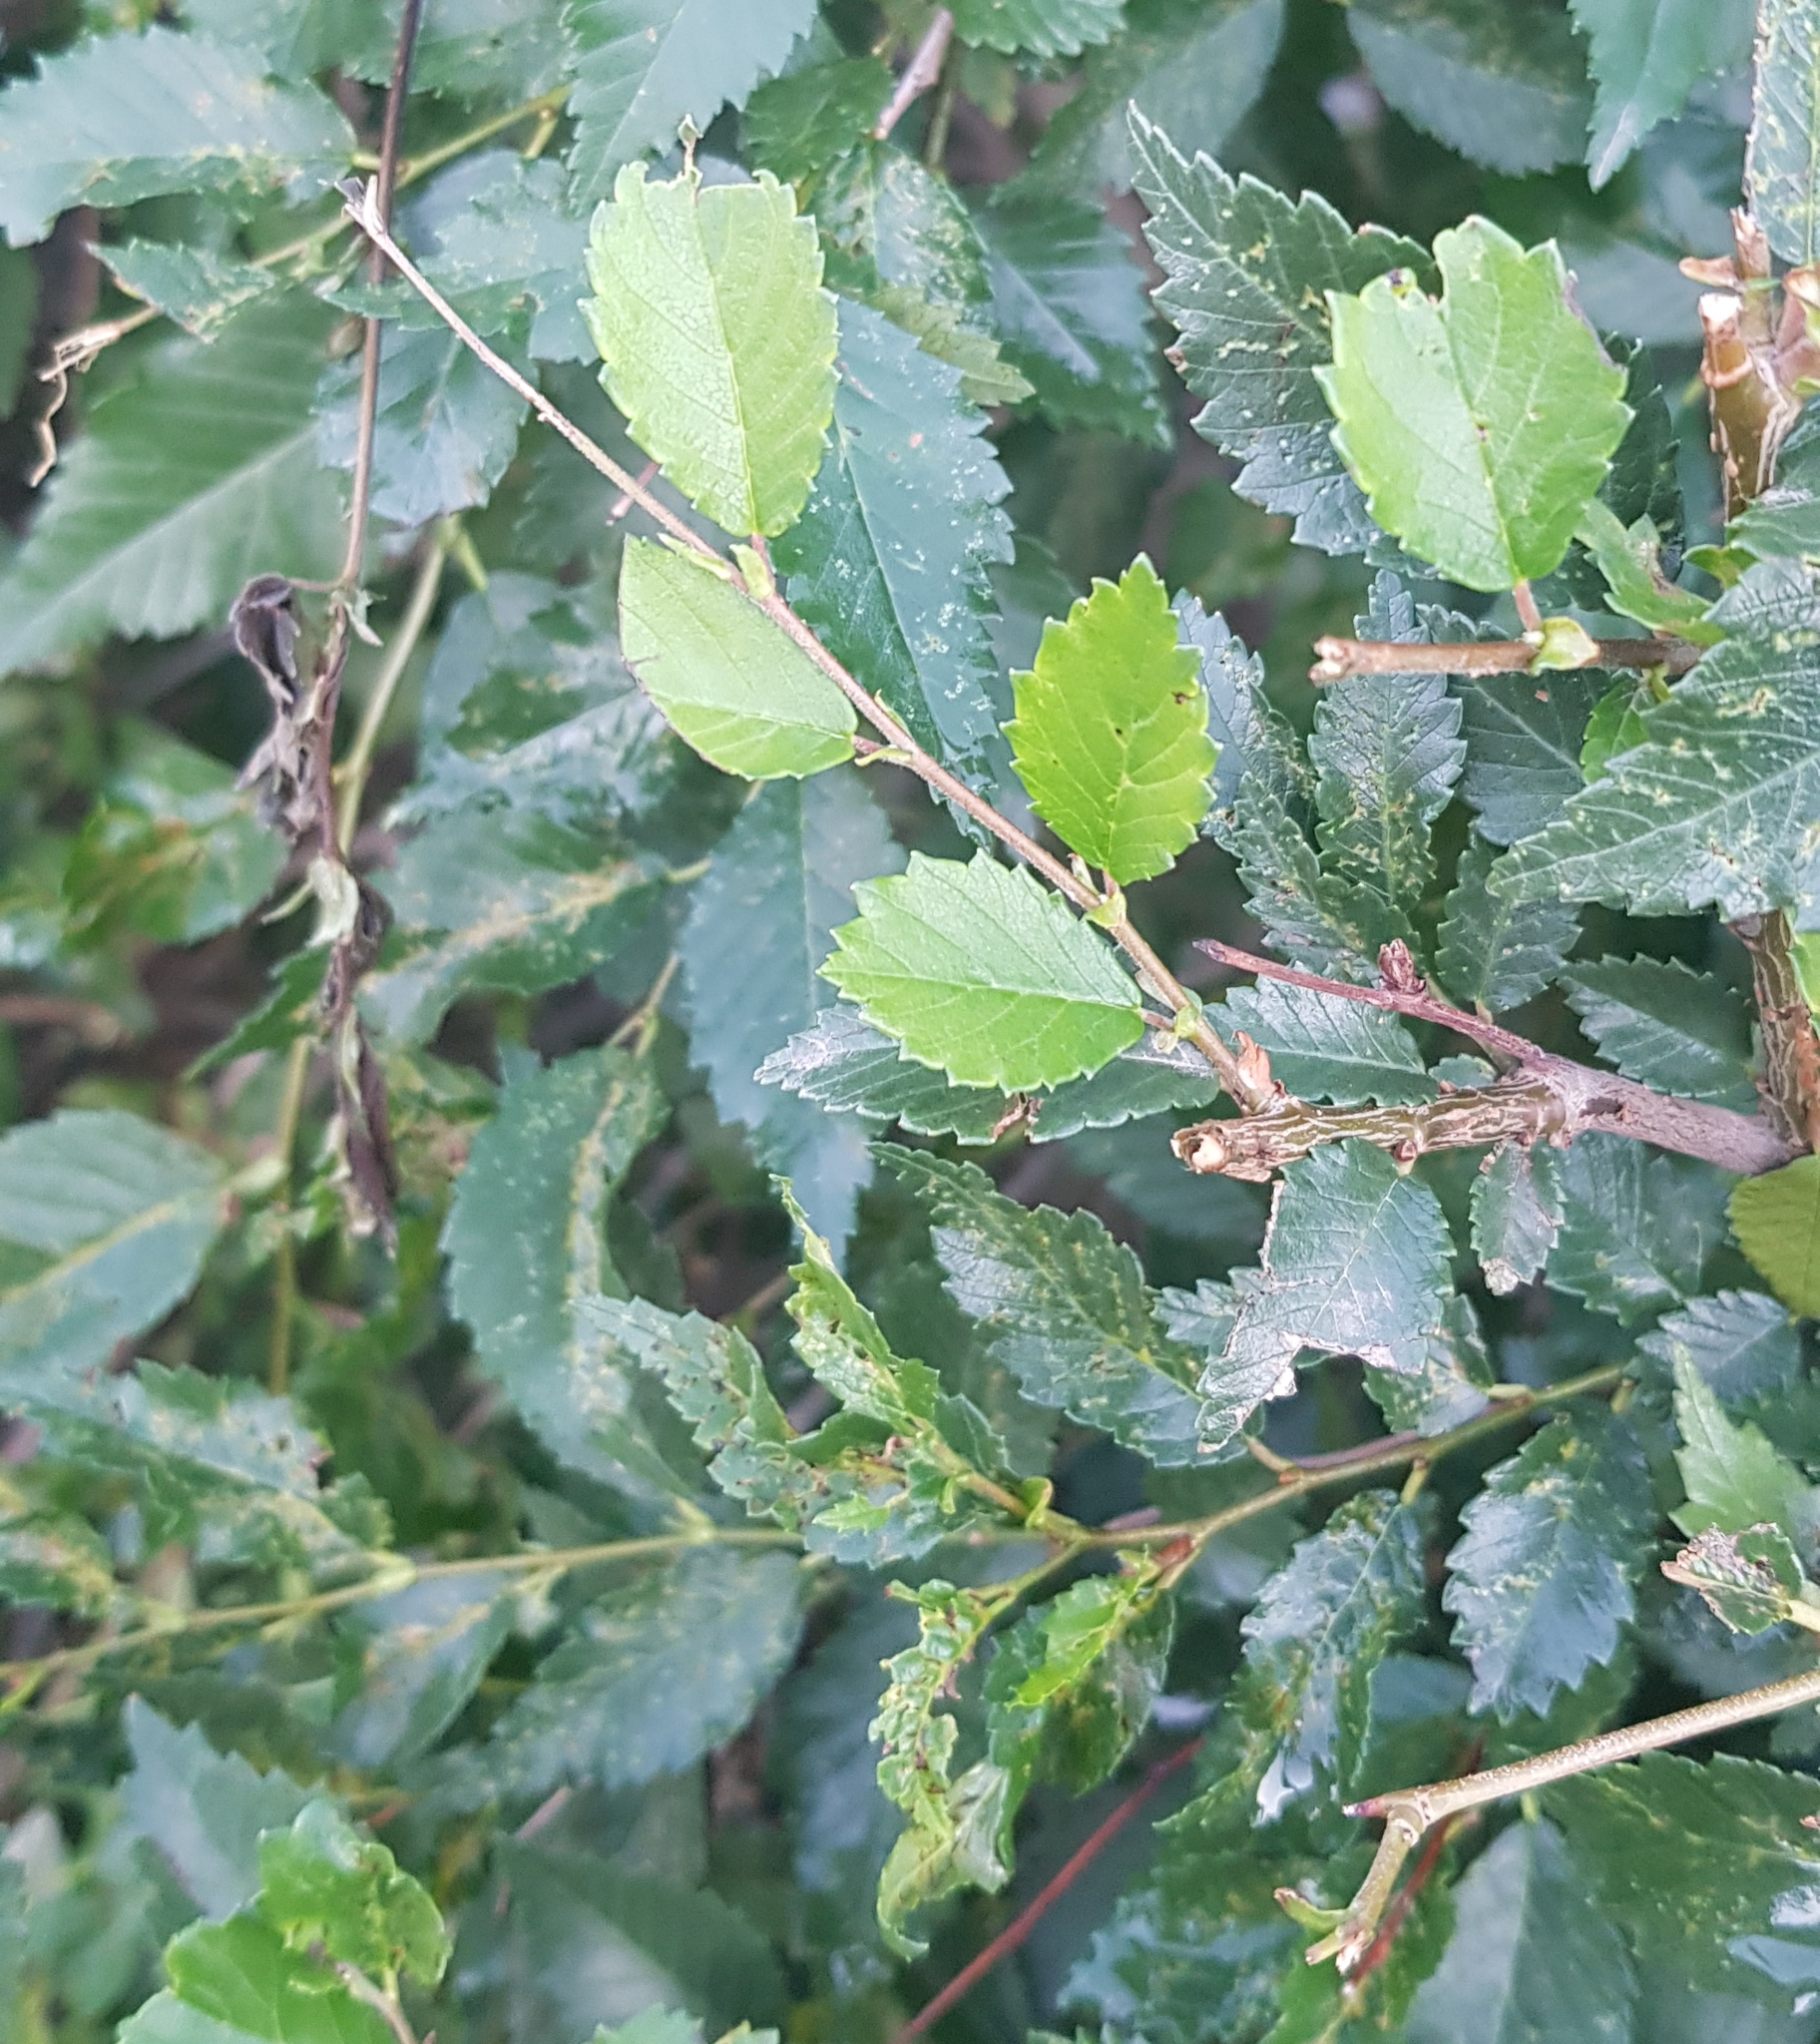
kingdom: Plantae
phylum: Tracheophyta
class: Magnoliopsida
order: Rosales
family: Ulmaceae
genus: Ulmus
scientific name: Ulmus pumila
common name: Siberian elm
